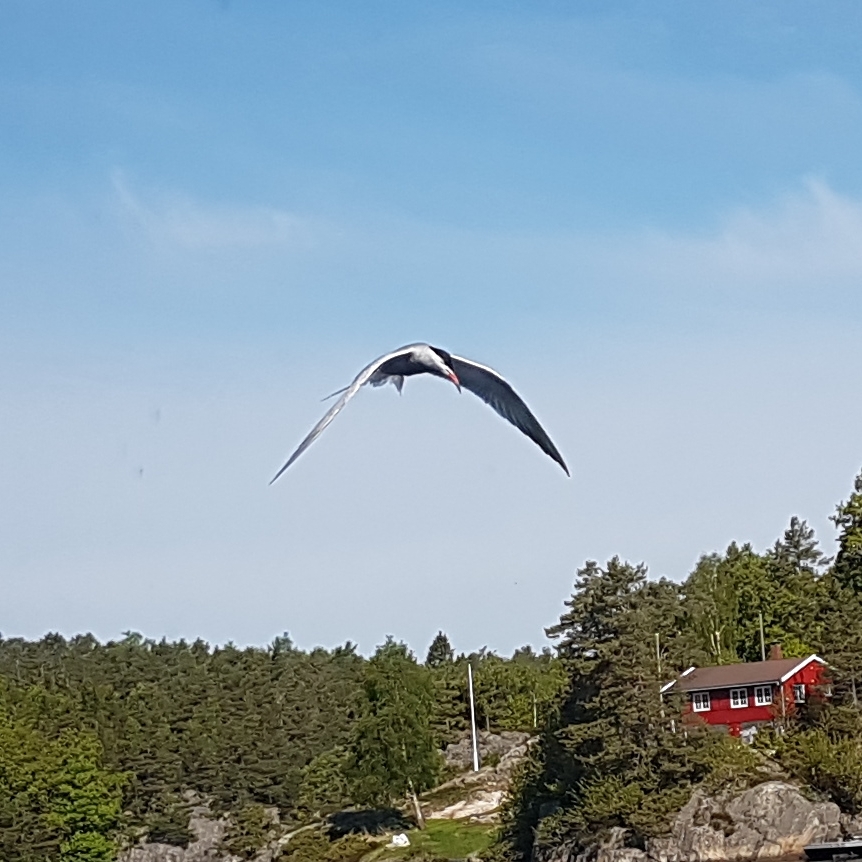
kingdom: Animalia
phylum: Chordata
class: Aves
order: Charadriiformes
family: Laridae
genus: Sterna
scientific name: Sterna hirundo
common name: Common tern
